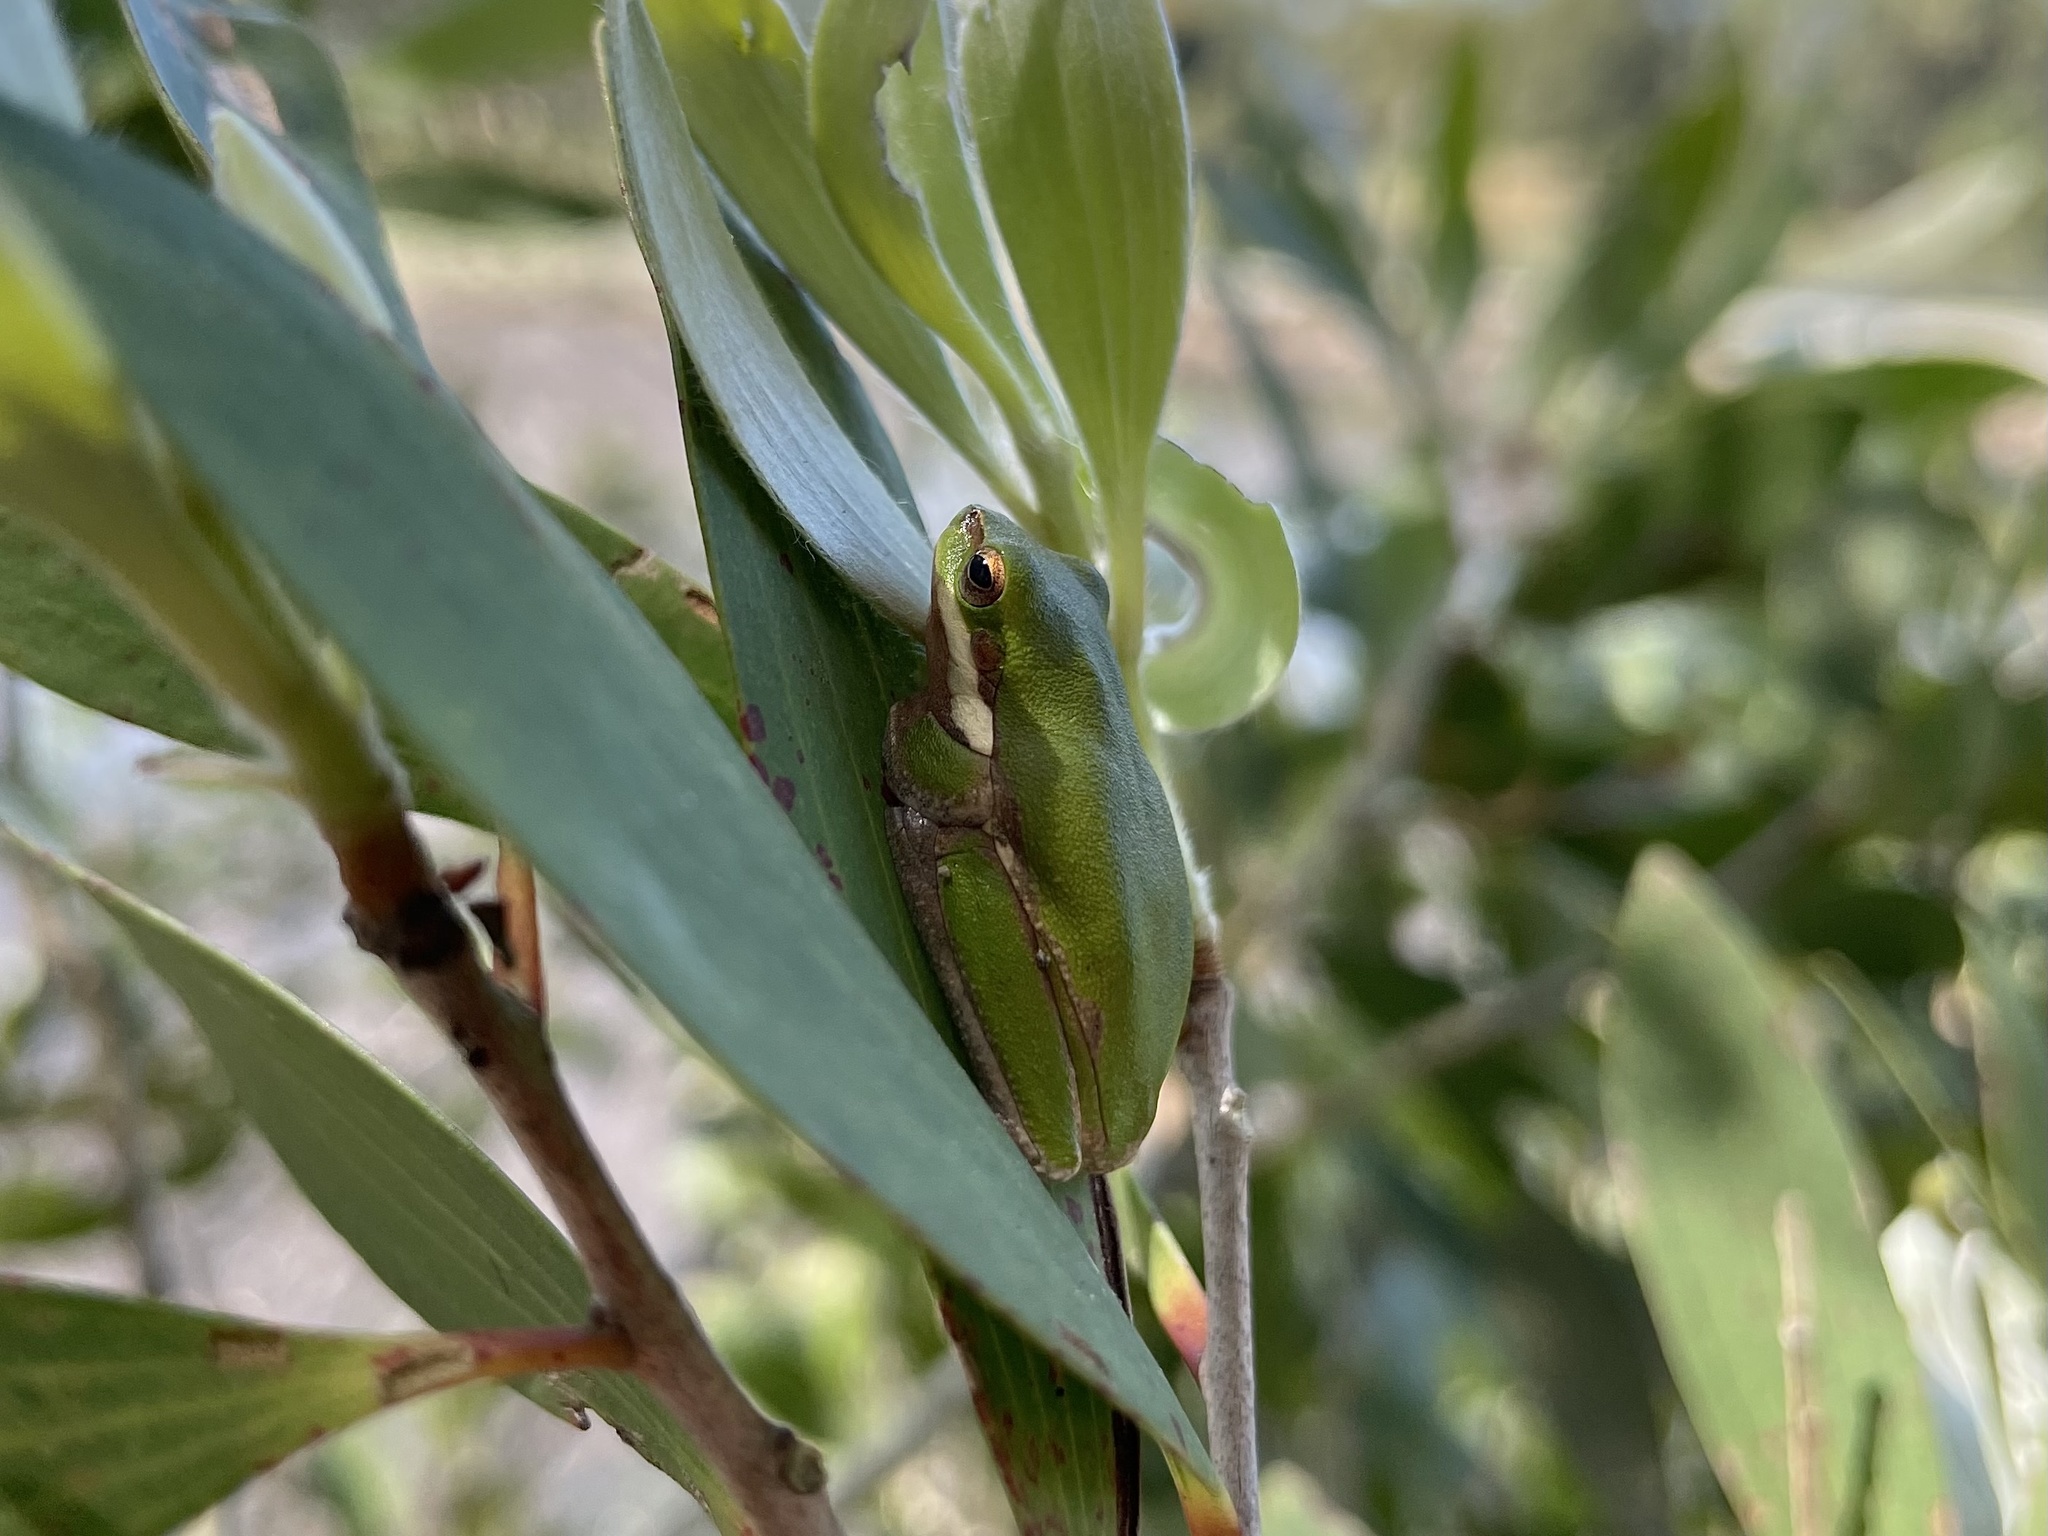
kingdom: Animalia
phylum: Chordata
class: Amphibia
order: Anura
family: Pelodryadidae
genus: Litoria
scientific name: Litoria fallax
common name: Eastern dwarf treefrog
